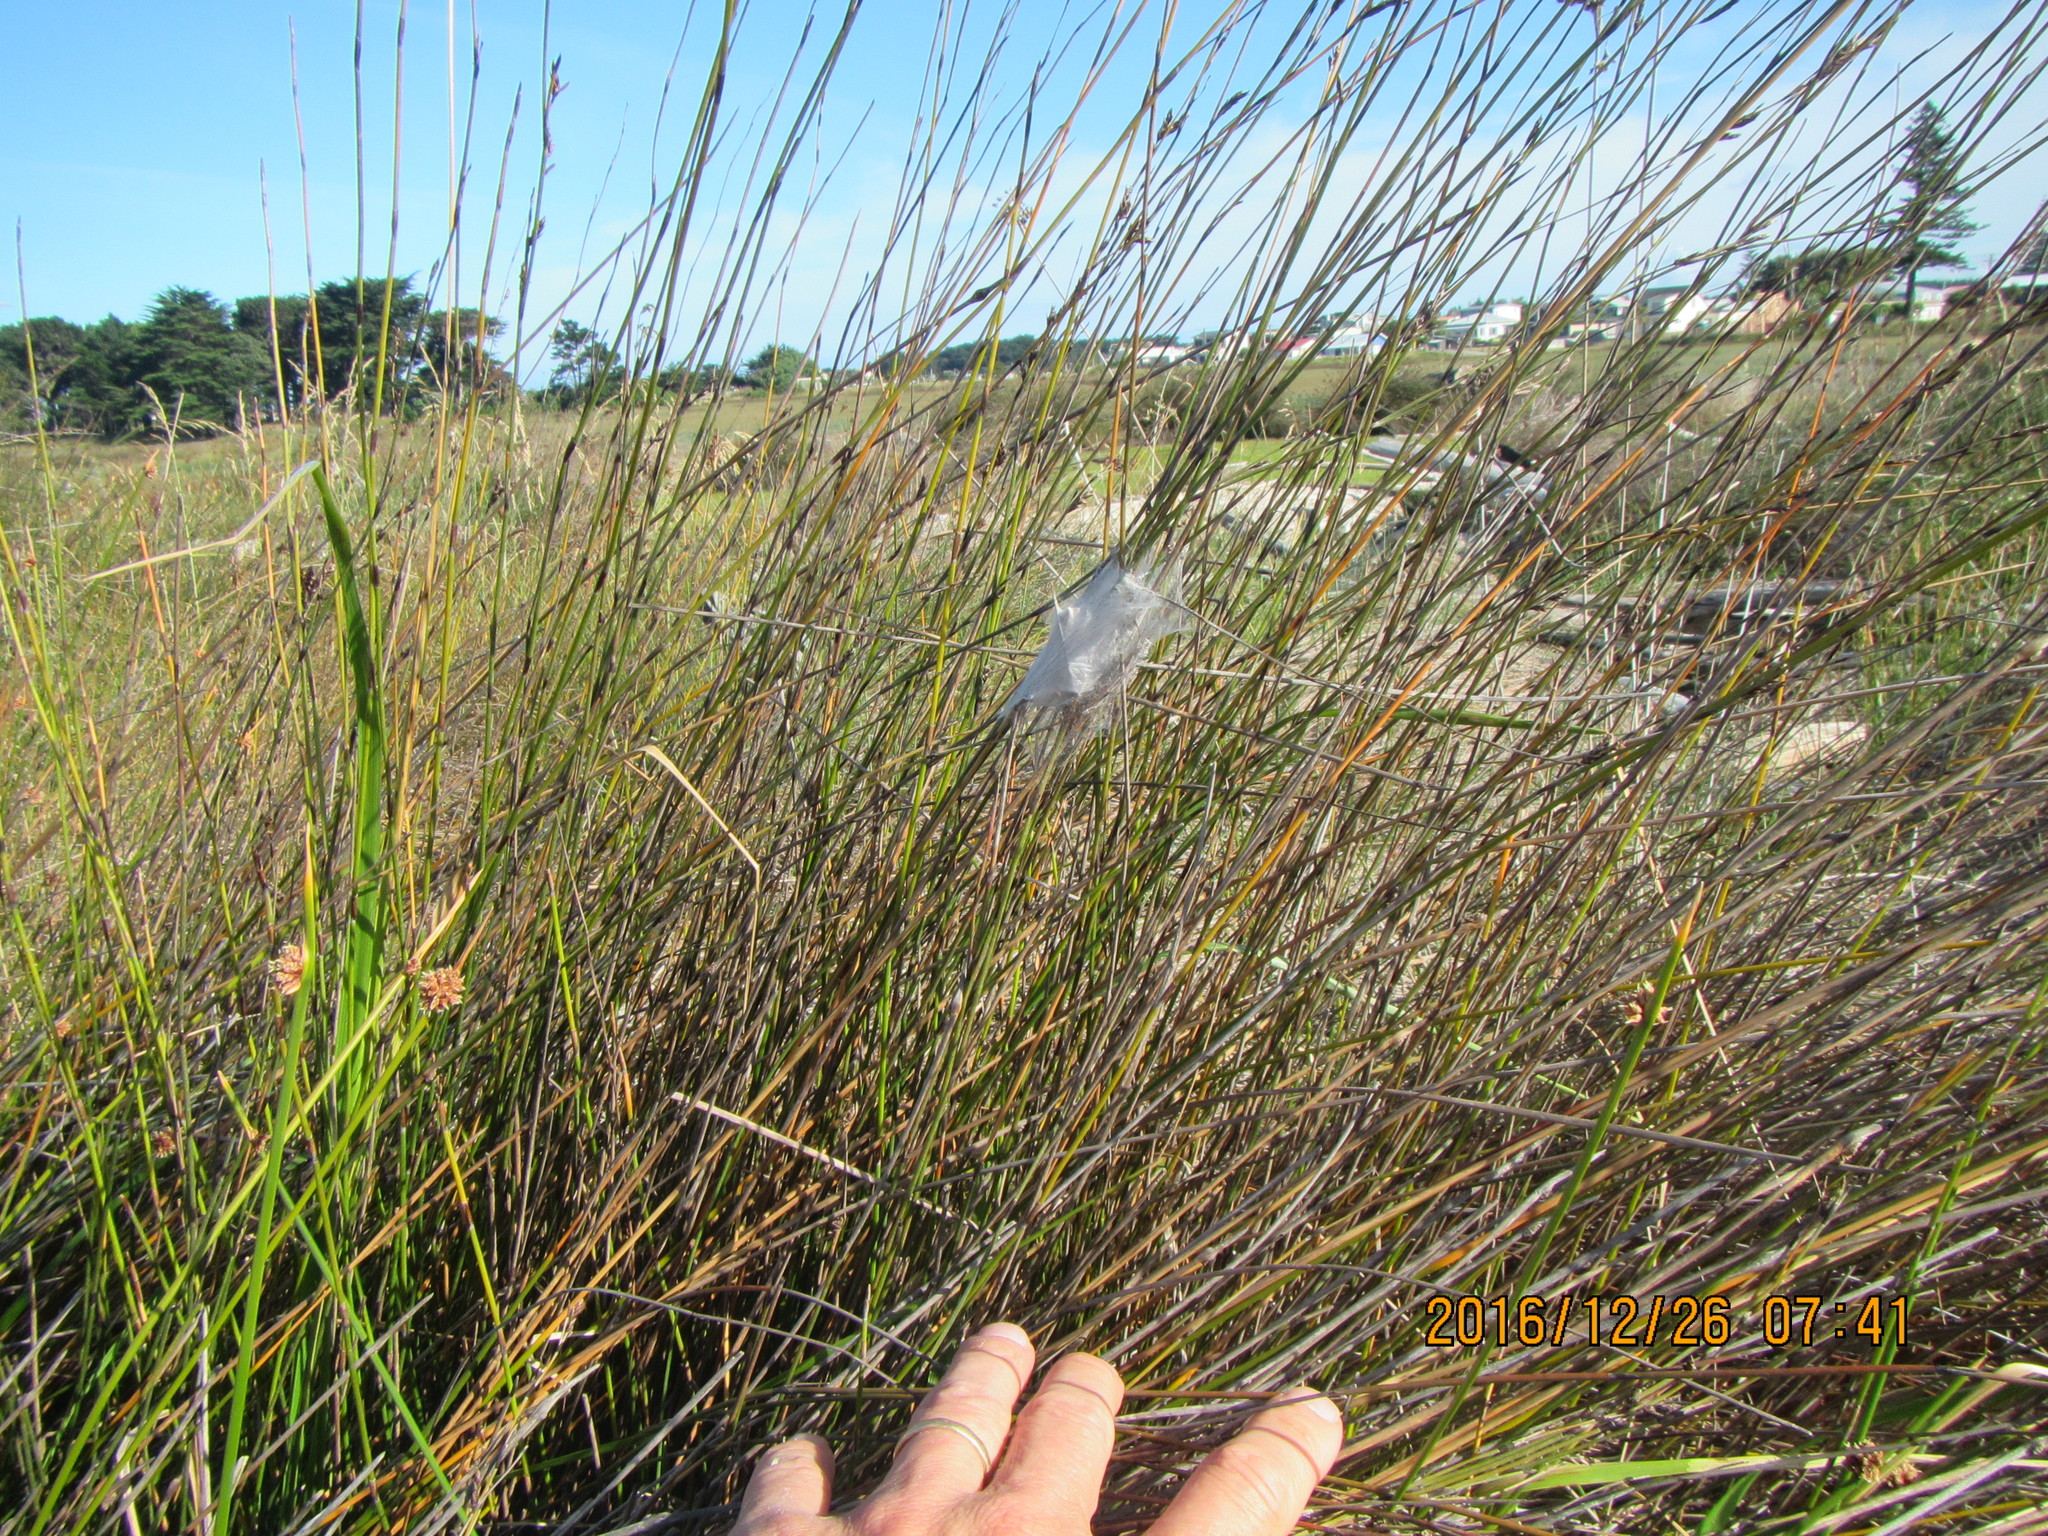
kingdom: Plantae
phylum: Tracheophyta
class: Liliopsida
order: Poales
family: Restionaceae
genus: Apodasmia
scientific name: Apodasmia similis
